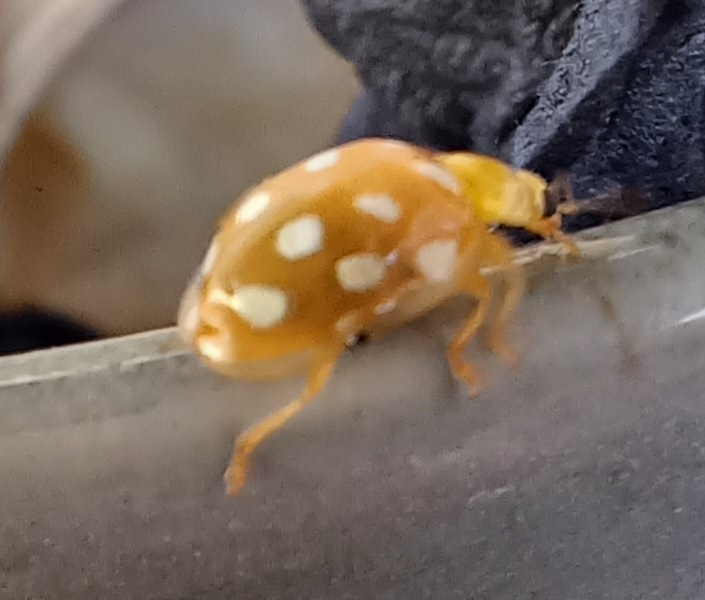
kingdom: Animalia
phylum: Arthropoda
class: Insecta
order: Coleoptera
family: Coccinellidae
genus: Halyzia
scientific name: Halyzia sedecimguttata
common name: Orange ladybird
